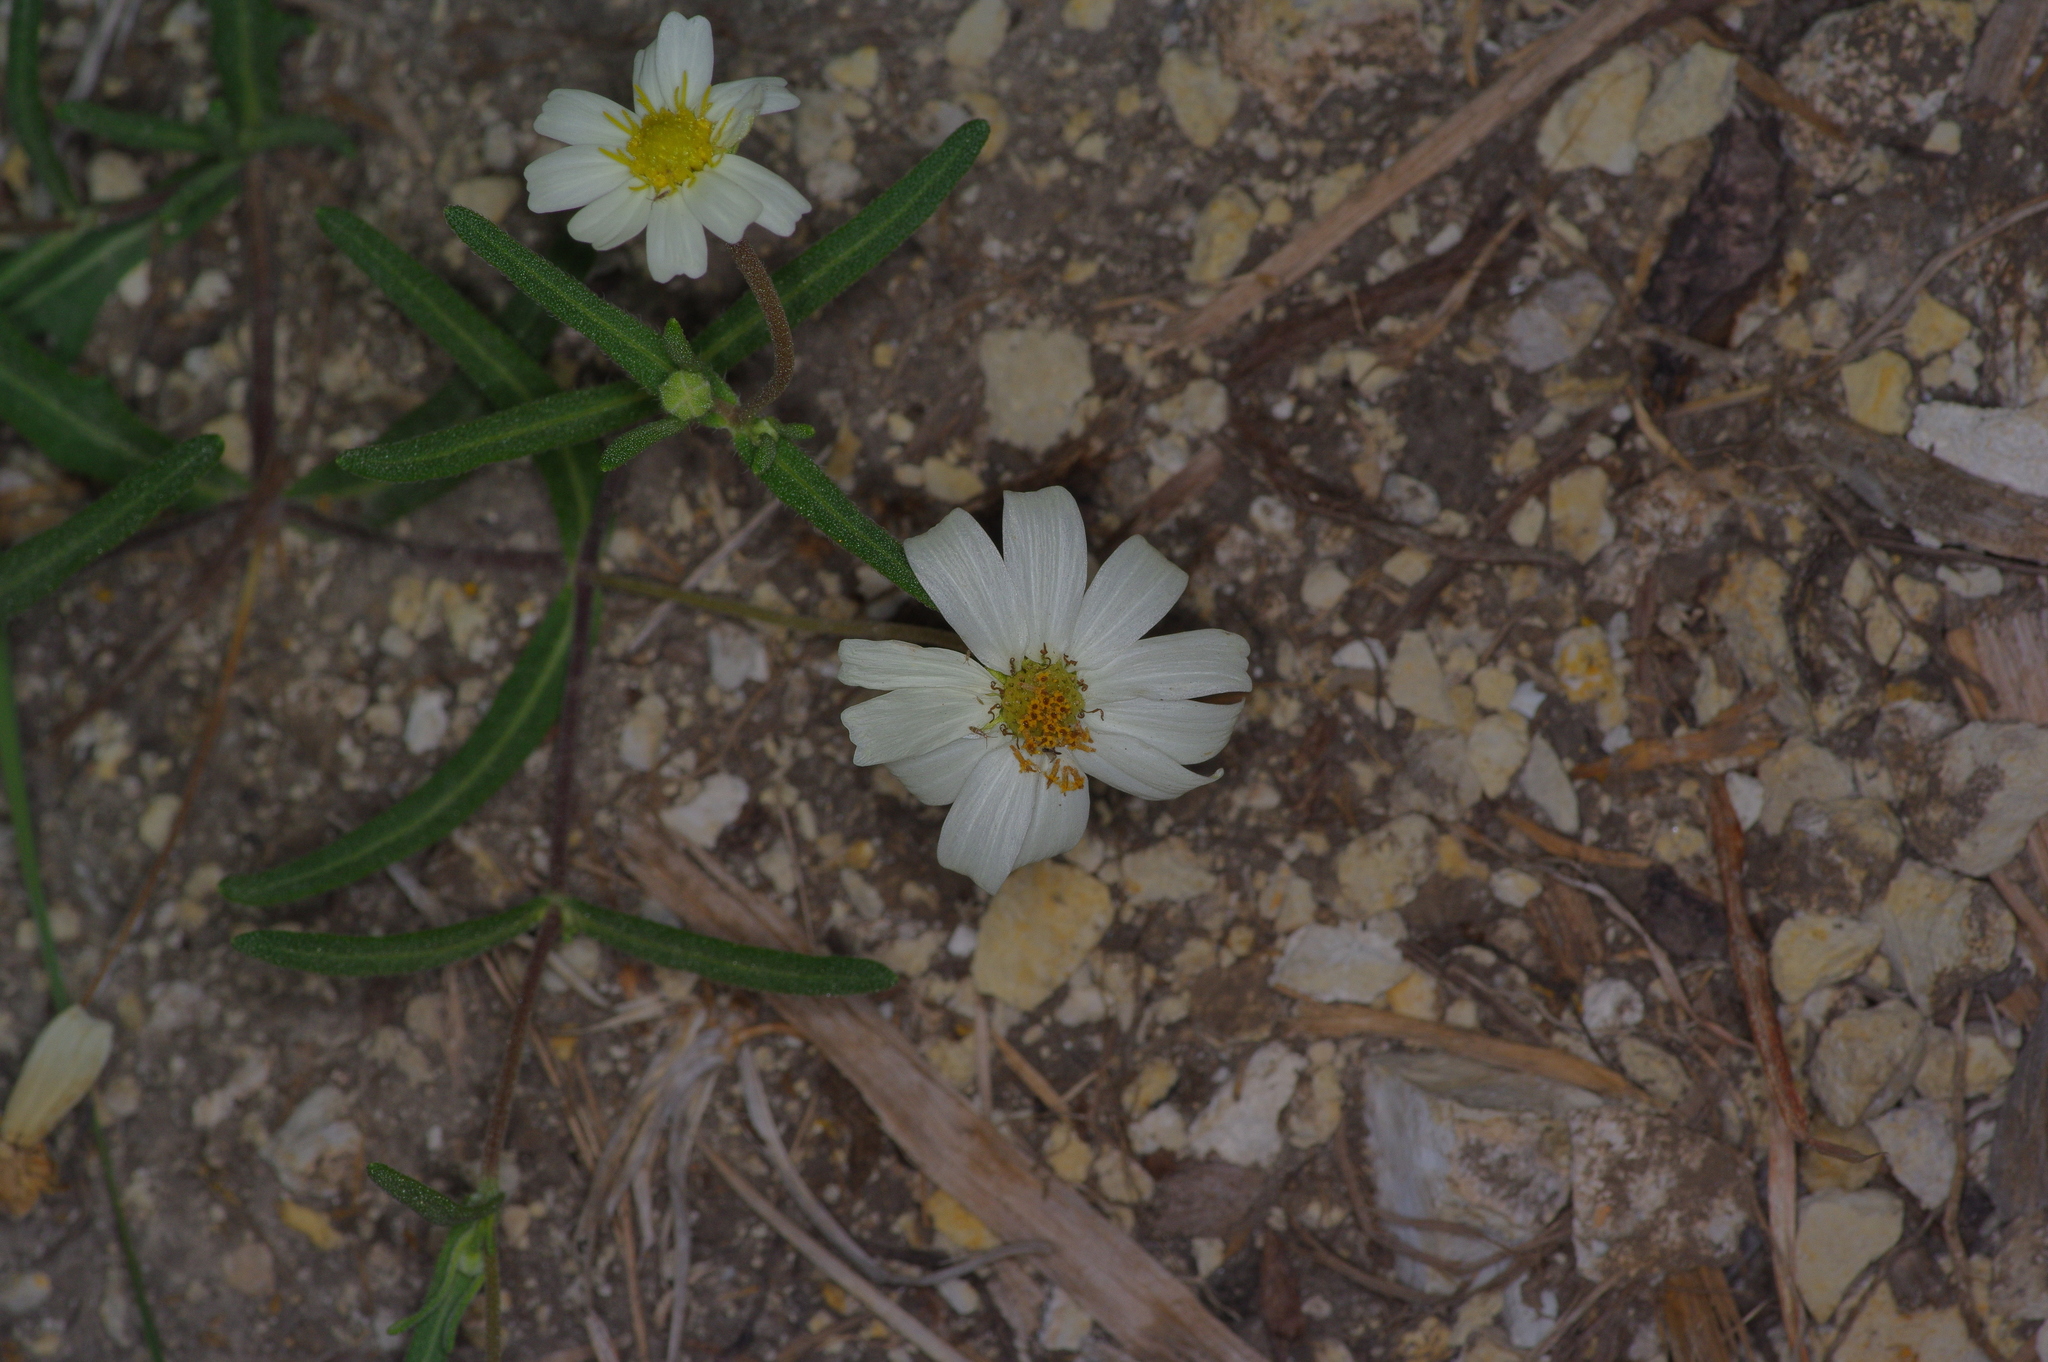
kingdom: Plantae
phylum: Tracheophyta
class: Magnoliopsida
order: Asterales
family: Asteraceae
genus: Melampodium
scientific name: Melampodium leucanthum
